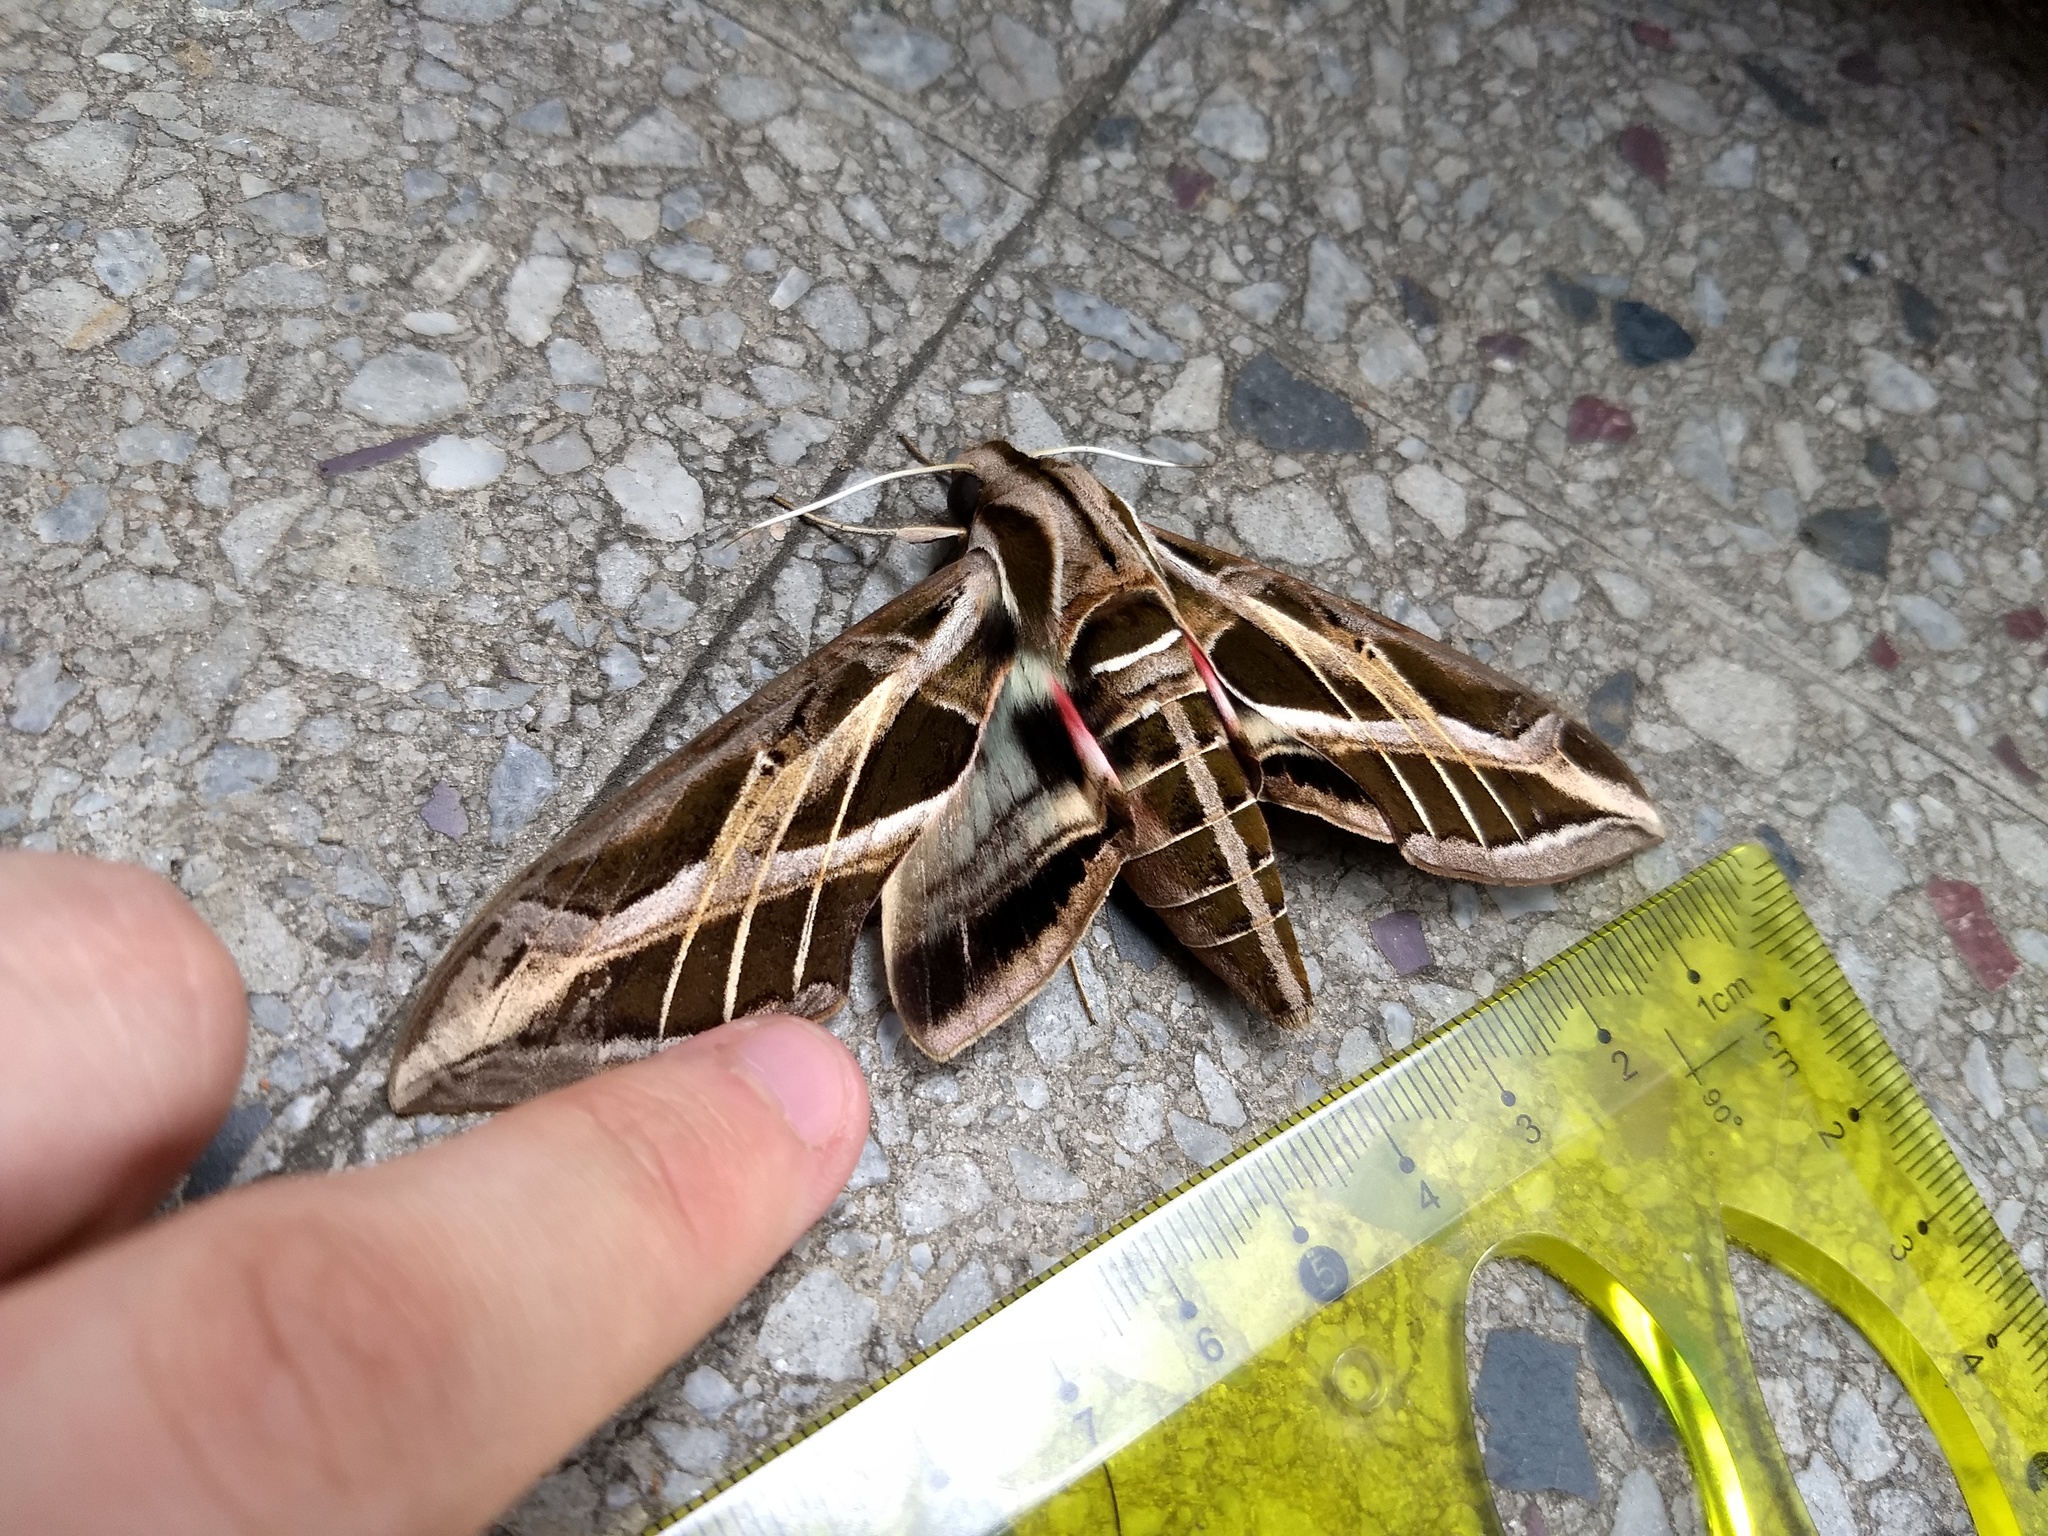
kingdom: Animalia
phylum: Arthropoda
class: Insecta
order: Lepidoptera
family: Sphingidae
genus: Eumorpha
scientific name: Eumorpha vitis
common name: Vine sphinx
